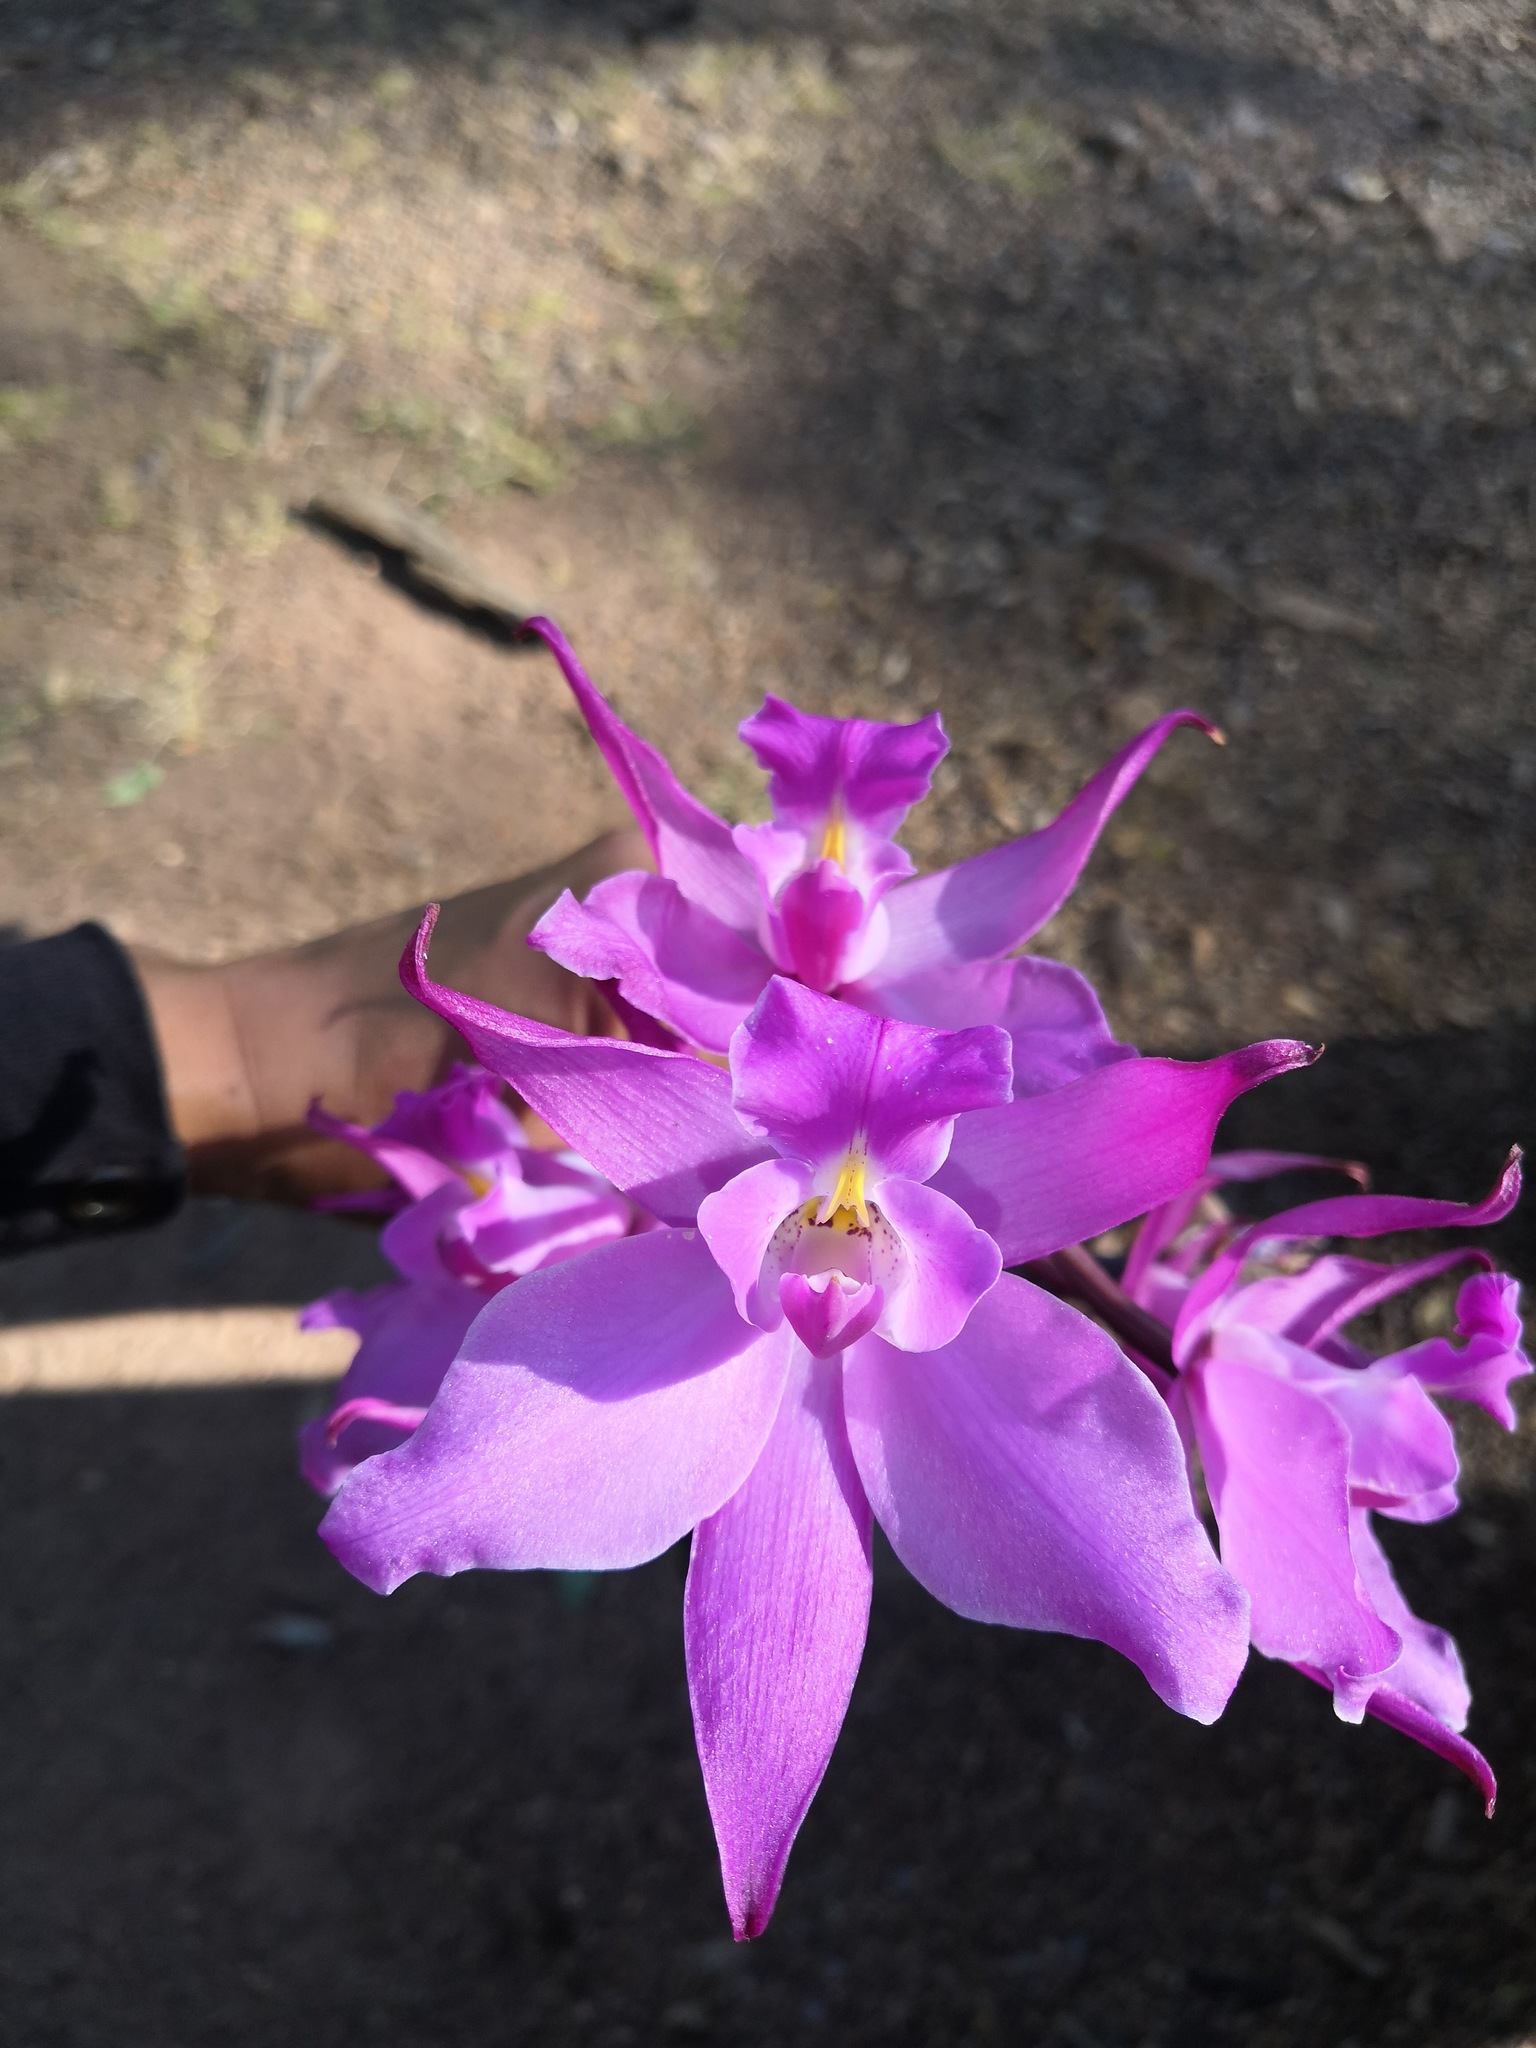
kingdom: Plantae
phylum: Tracheophyta
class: Liliopsida
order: Asparagales
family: Orchidaceae
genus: Laelia
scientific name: Laelia autumnalis
